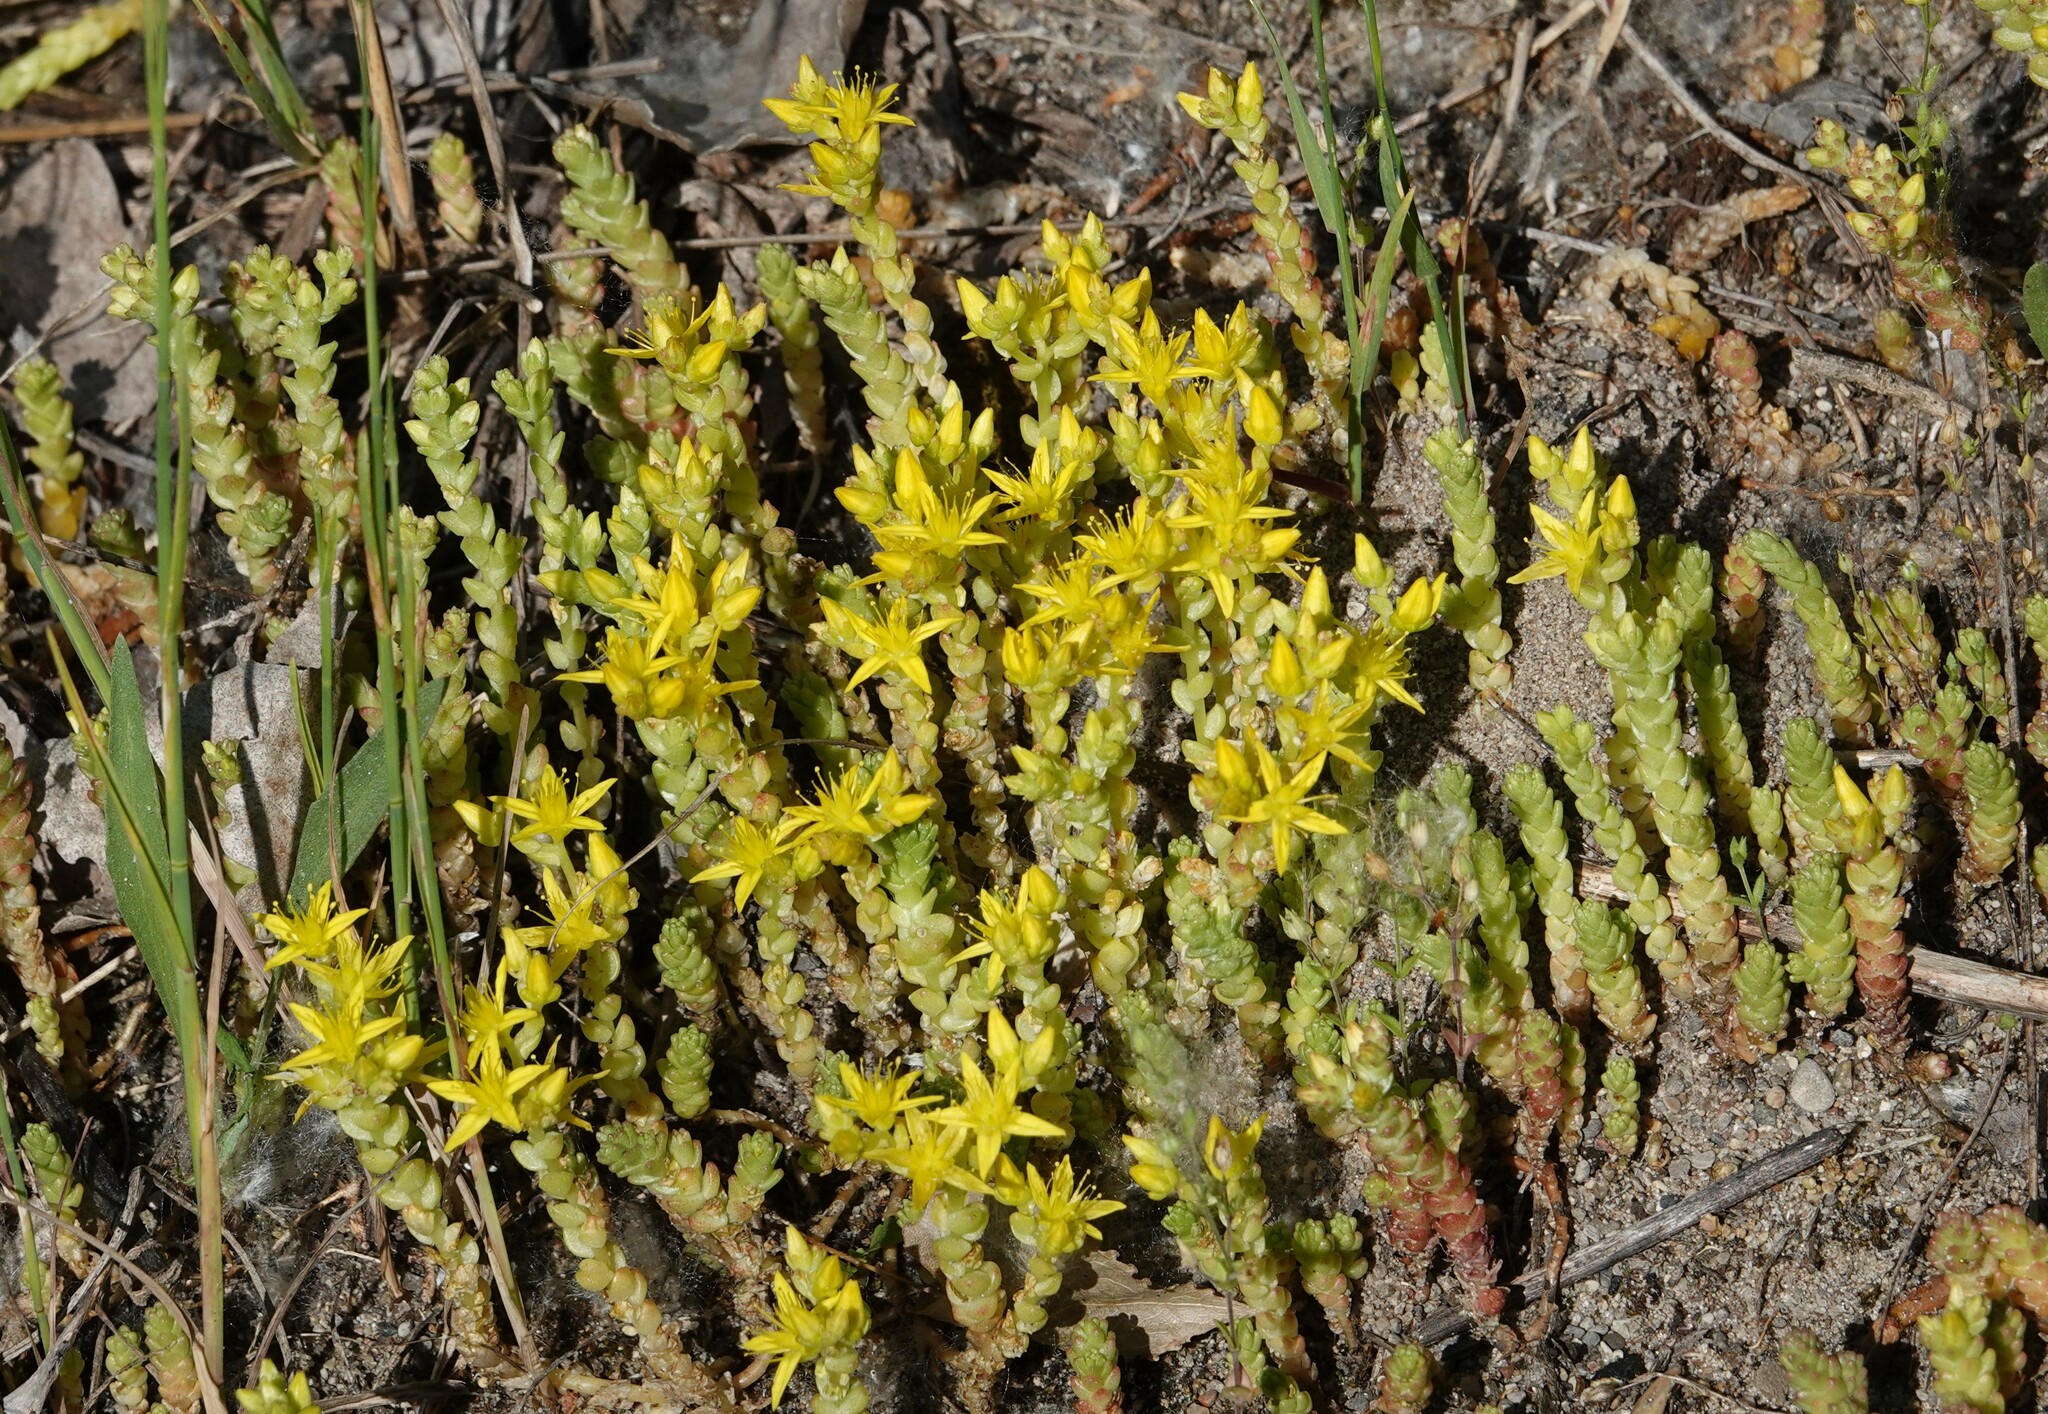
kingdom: Plantae
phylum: Tracheophyta
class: Magnoliopsida
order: Saxifragales
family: Crassulaceae
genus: Sedum
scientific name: Sedum acre
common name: Biting stonecrop
